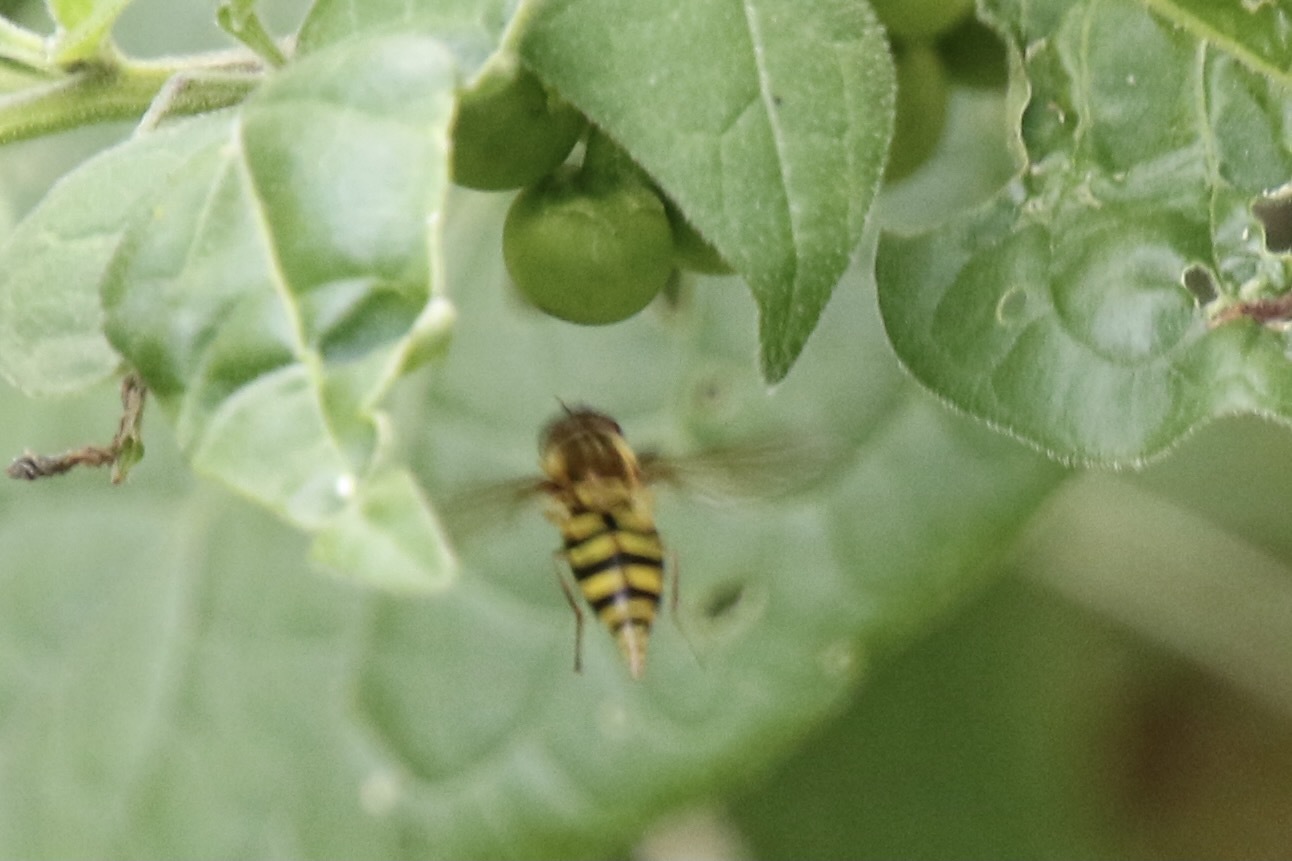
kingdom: Animalia
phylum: Arthropoda
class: Insecta
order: Diptera
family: Syrphidae
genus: Syrphus
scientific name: Syrphus
